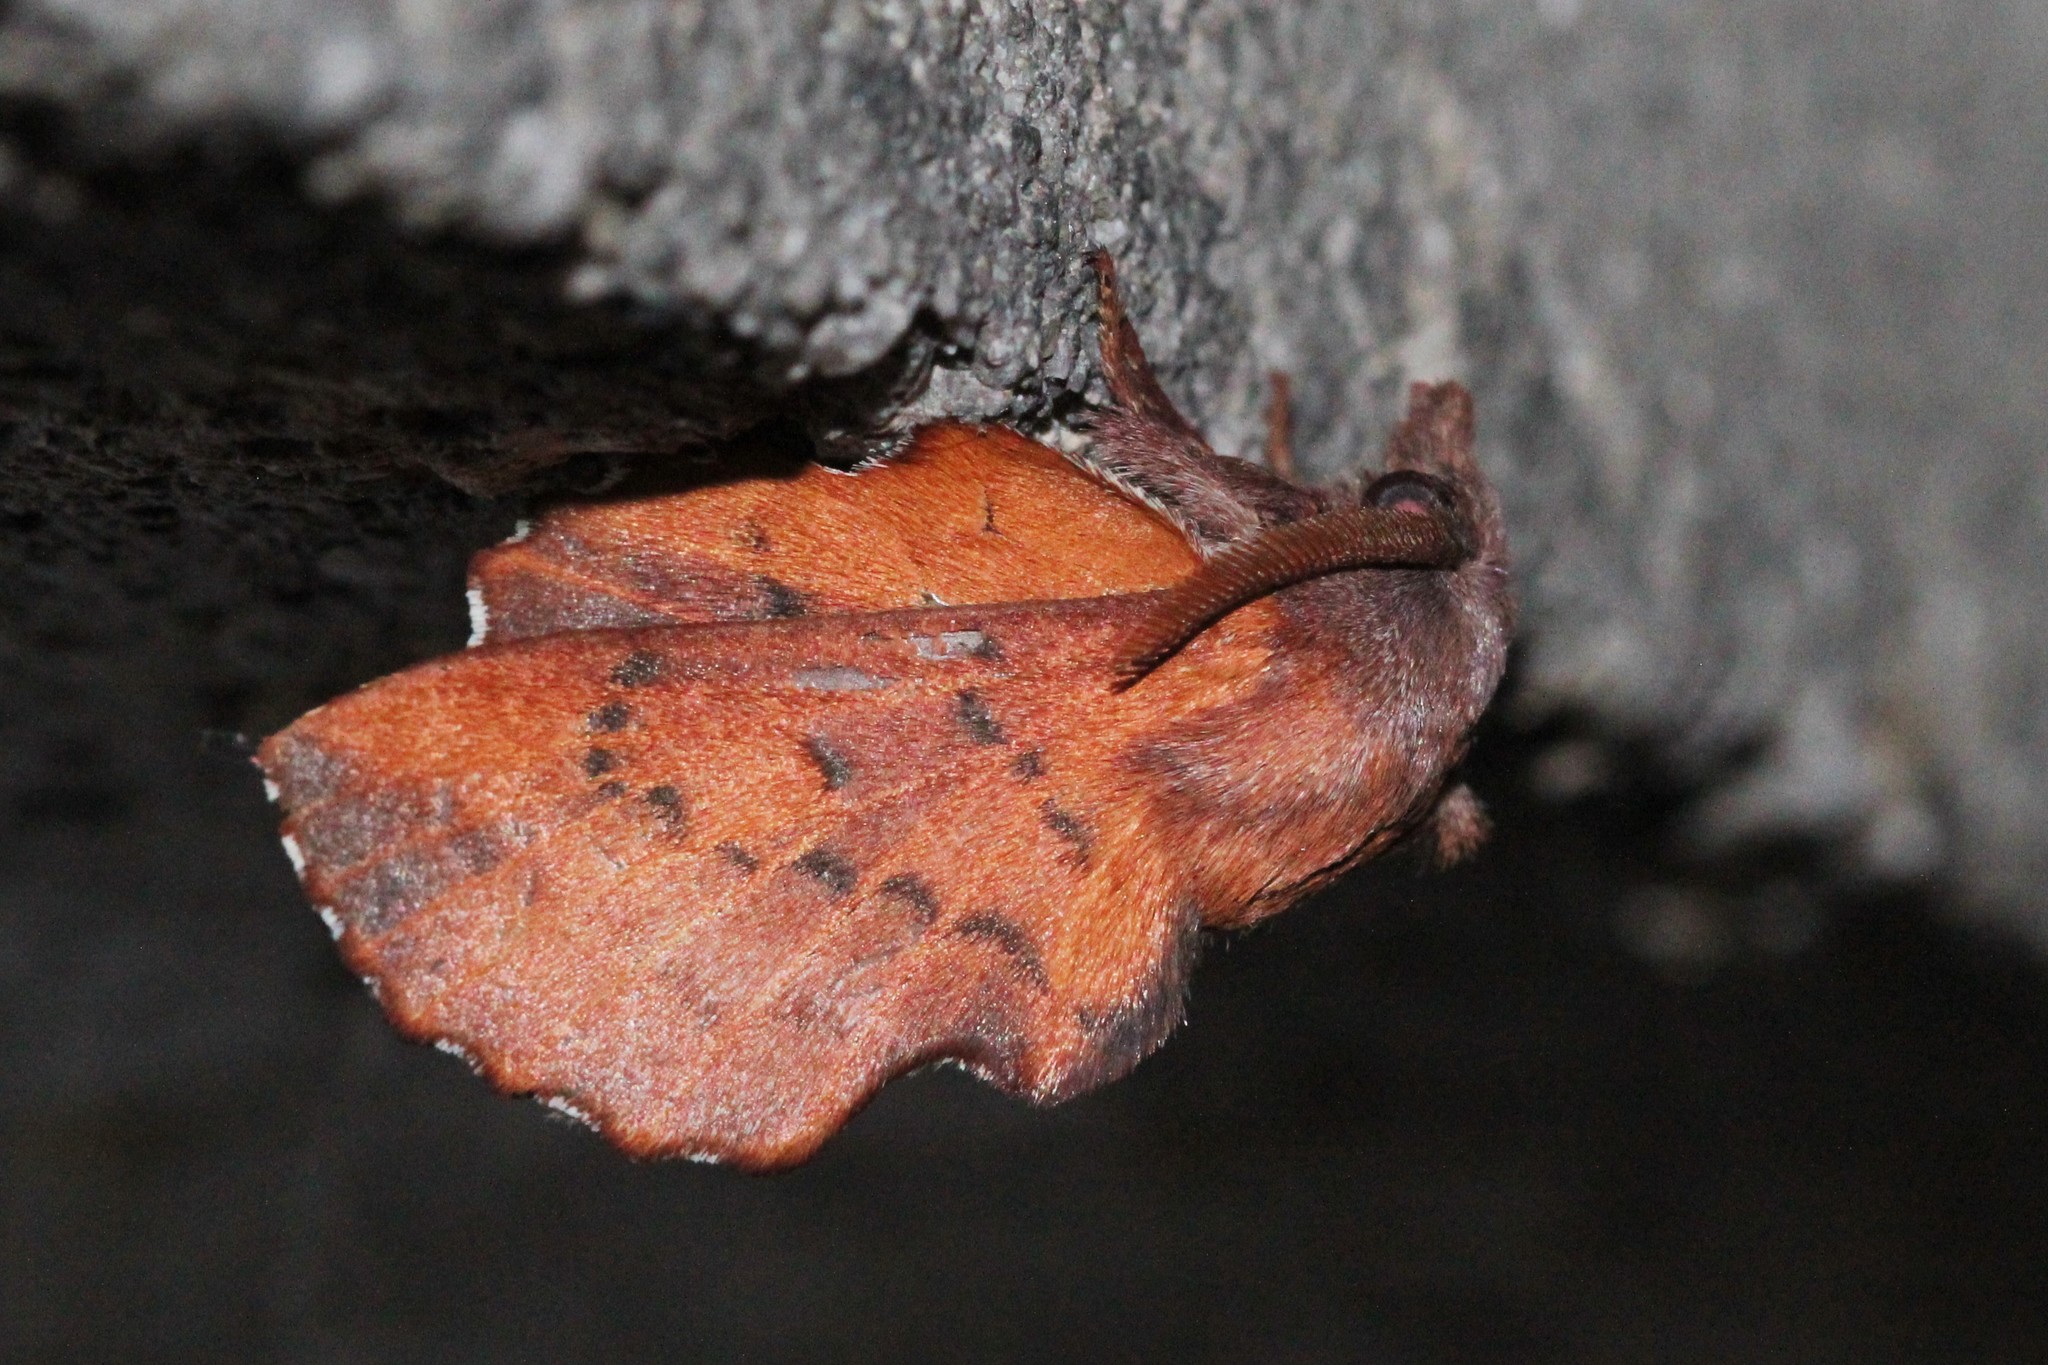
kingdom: Animalia
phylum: Arthropoda
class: Insecta
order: Lepidoptera
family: Lasiocampidae
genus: Phyllodesma
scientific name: Phyllodesma americana
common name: American lappet moth
